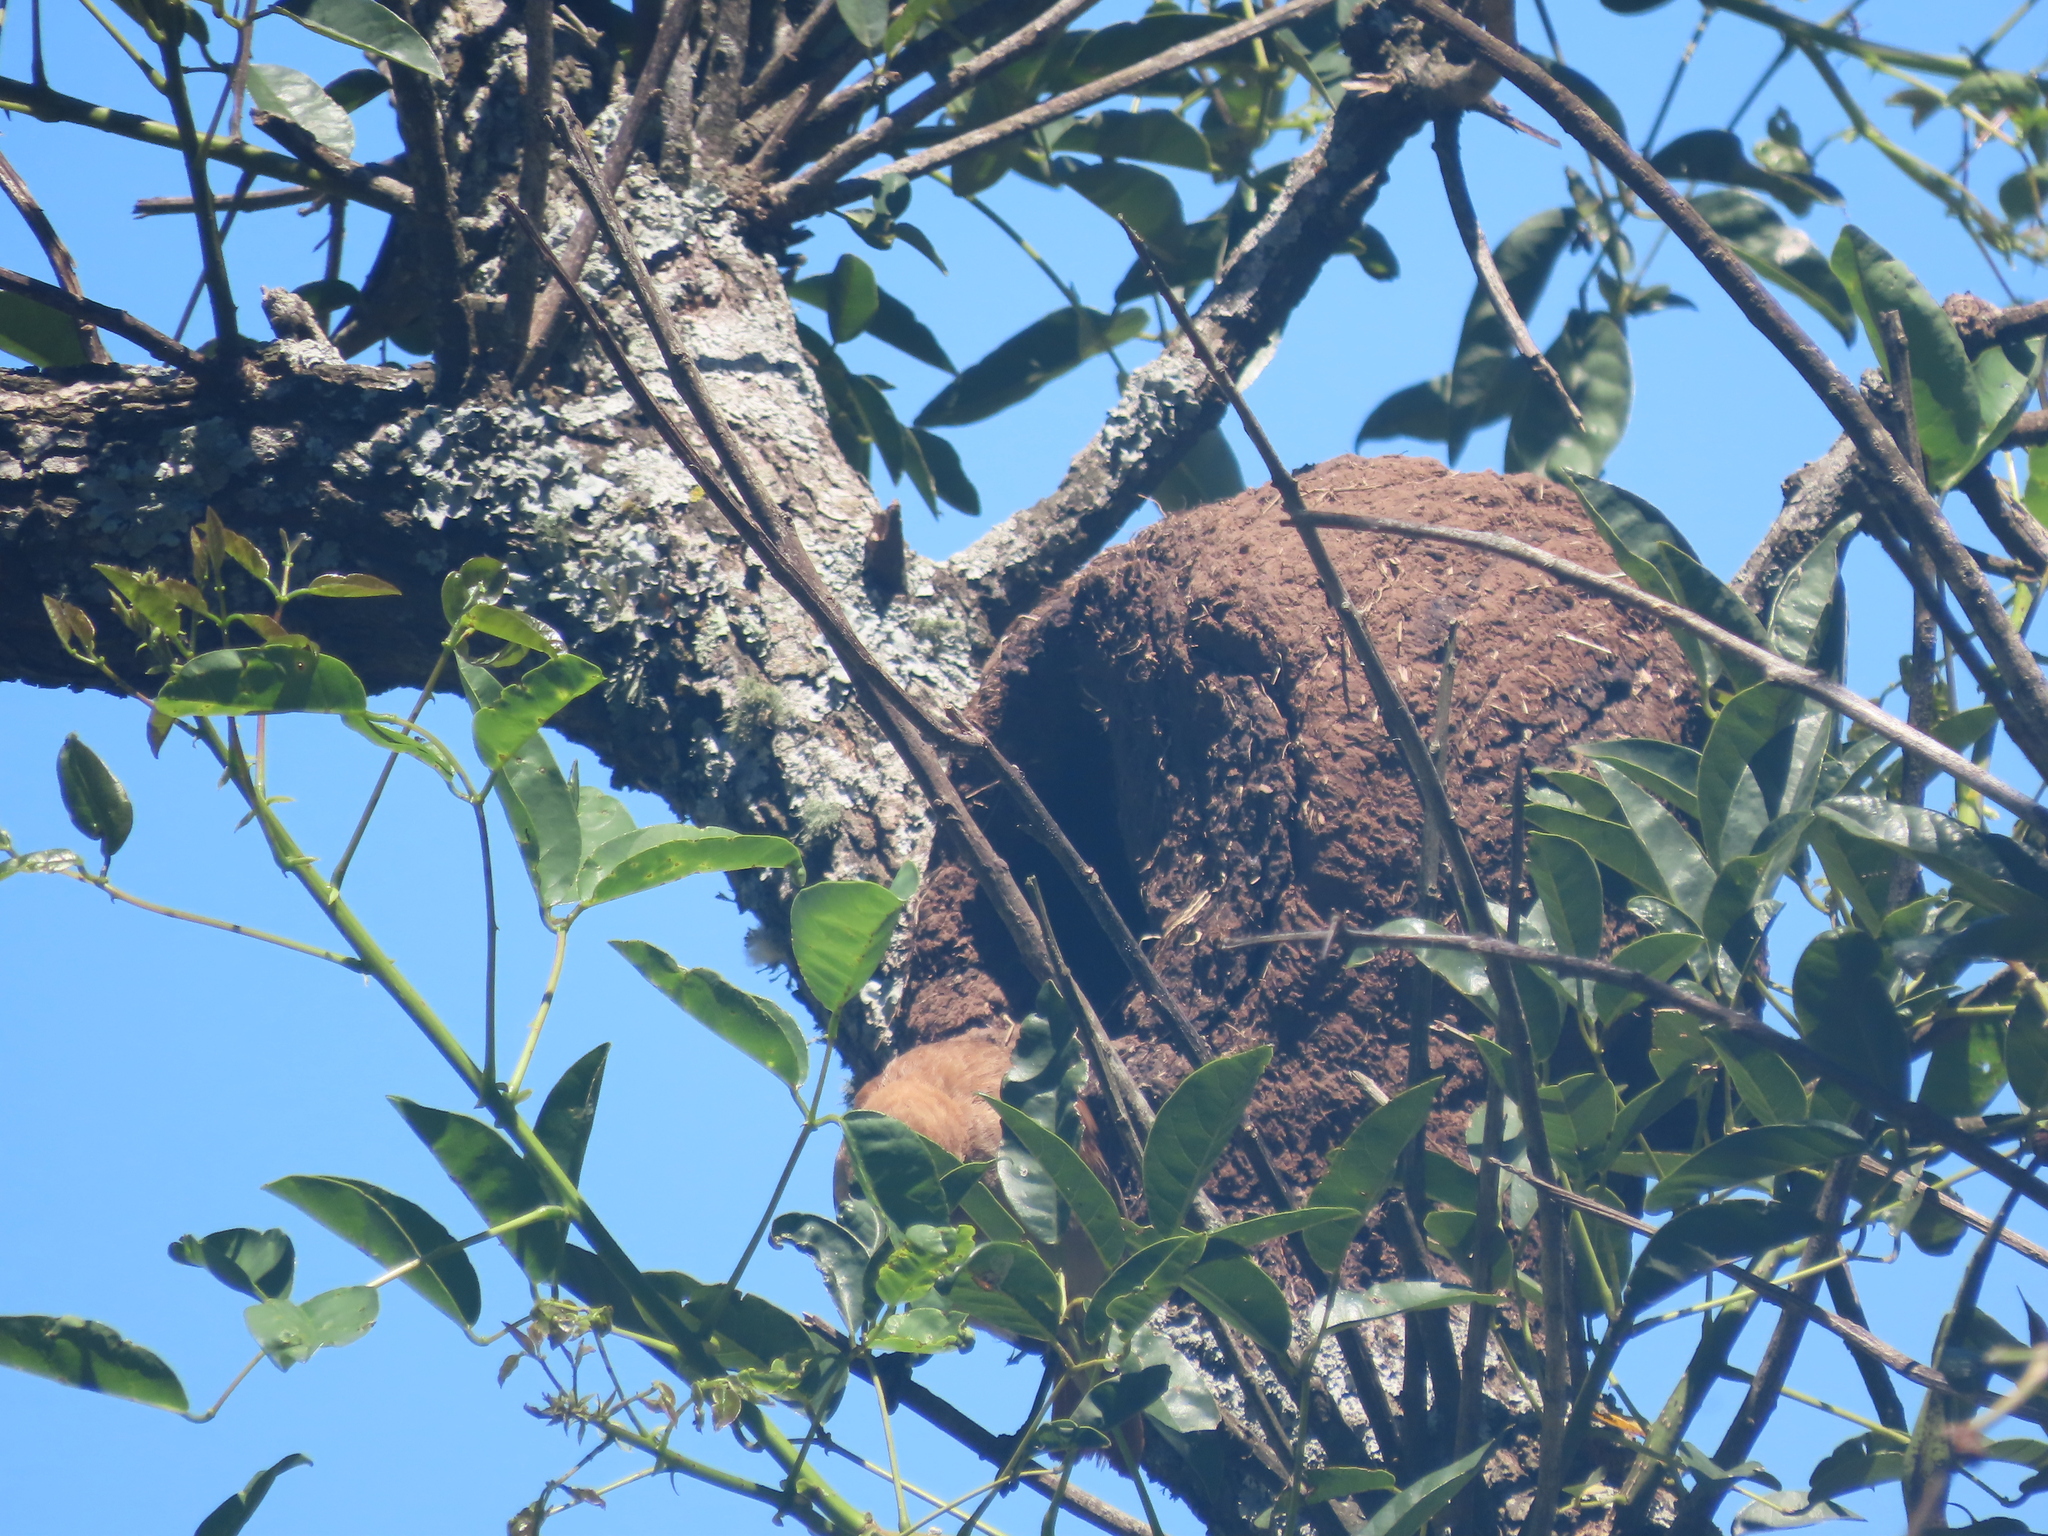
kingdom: Animalia
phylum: Chordata
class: Aves
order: Passeriformes
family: Furnariidae
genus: Furnarius
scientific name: Furnarius rufus
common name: Rufous hornero
